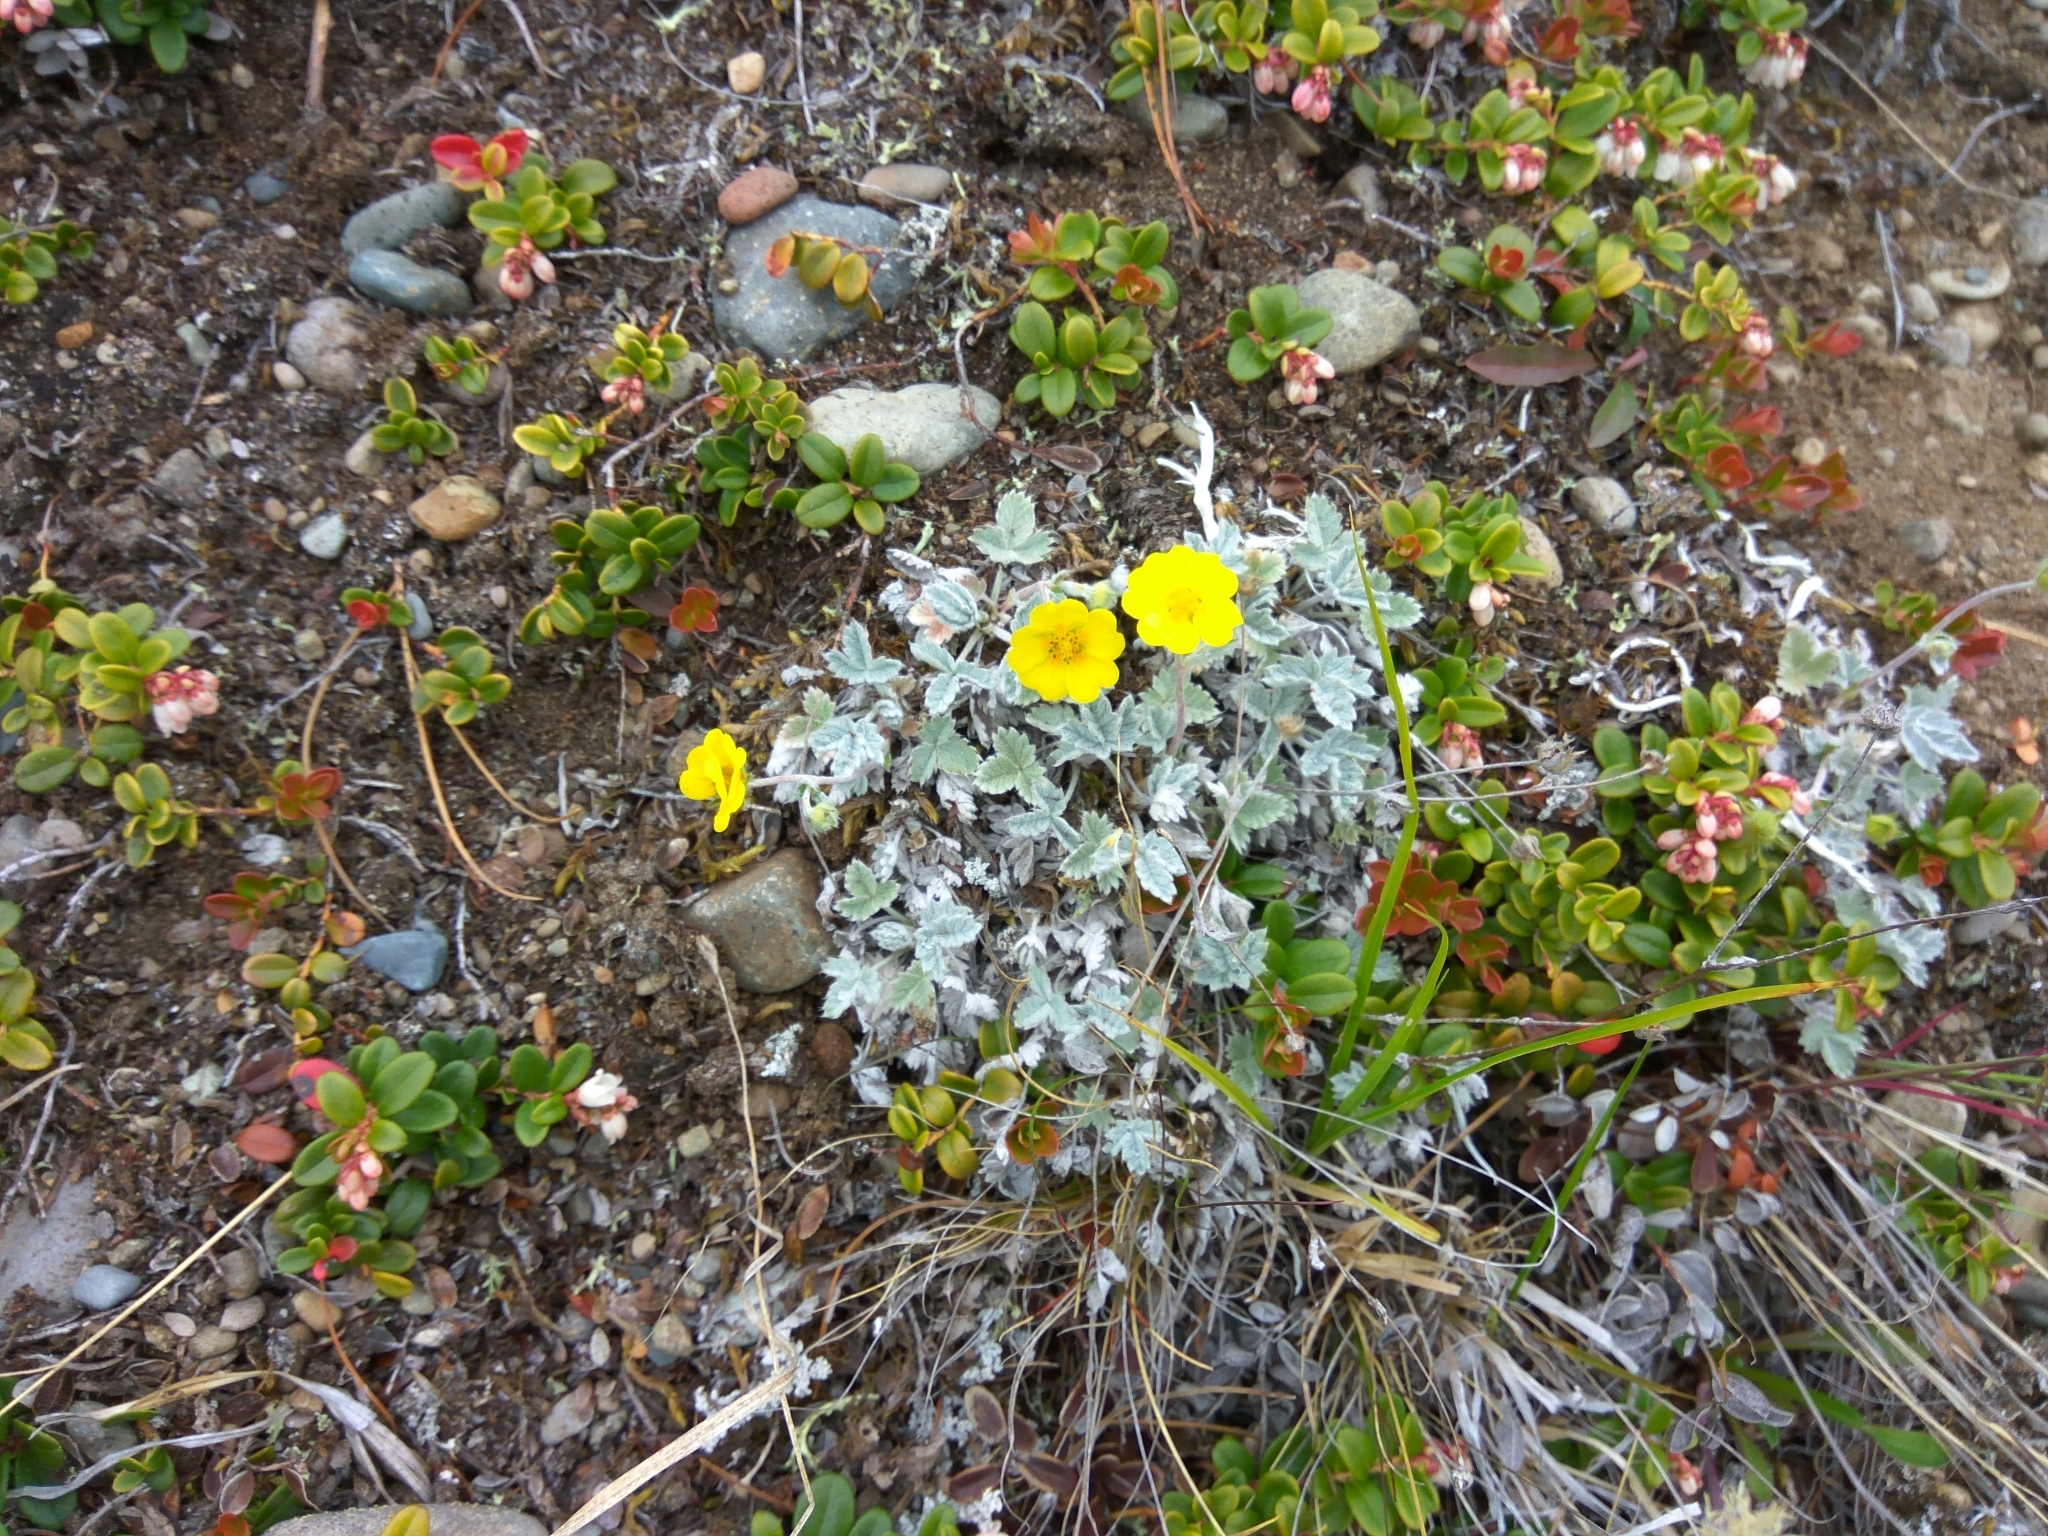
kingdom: Plantae
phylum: Tracheophyta
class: Magnoliopsida
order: Rosales
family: Rosaceae
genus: Potentilla
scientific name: Potentilla nivea
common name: Snow cinquefoil
